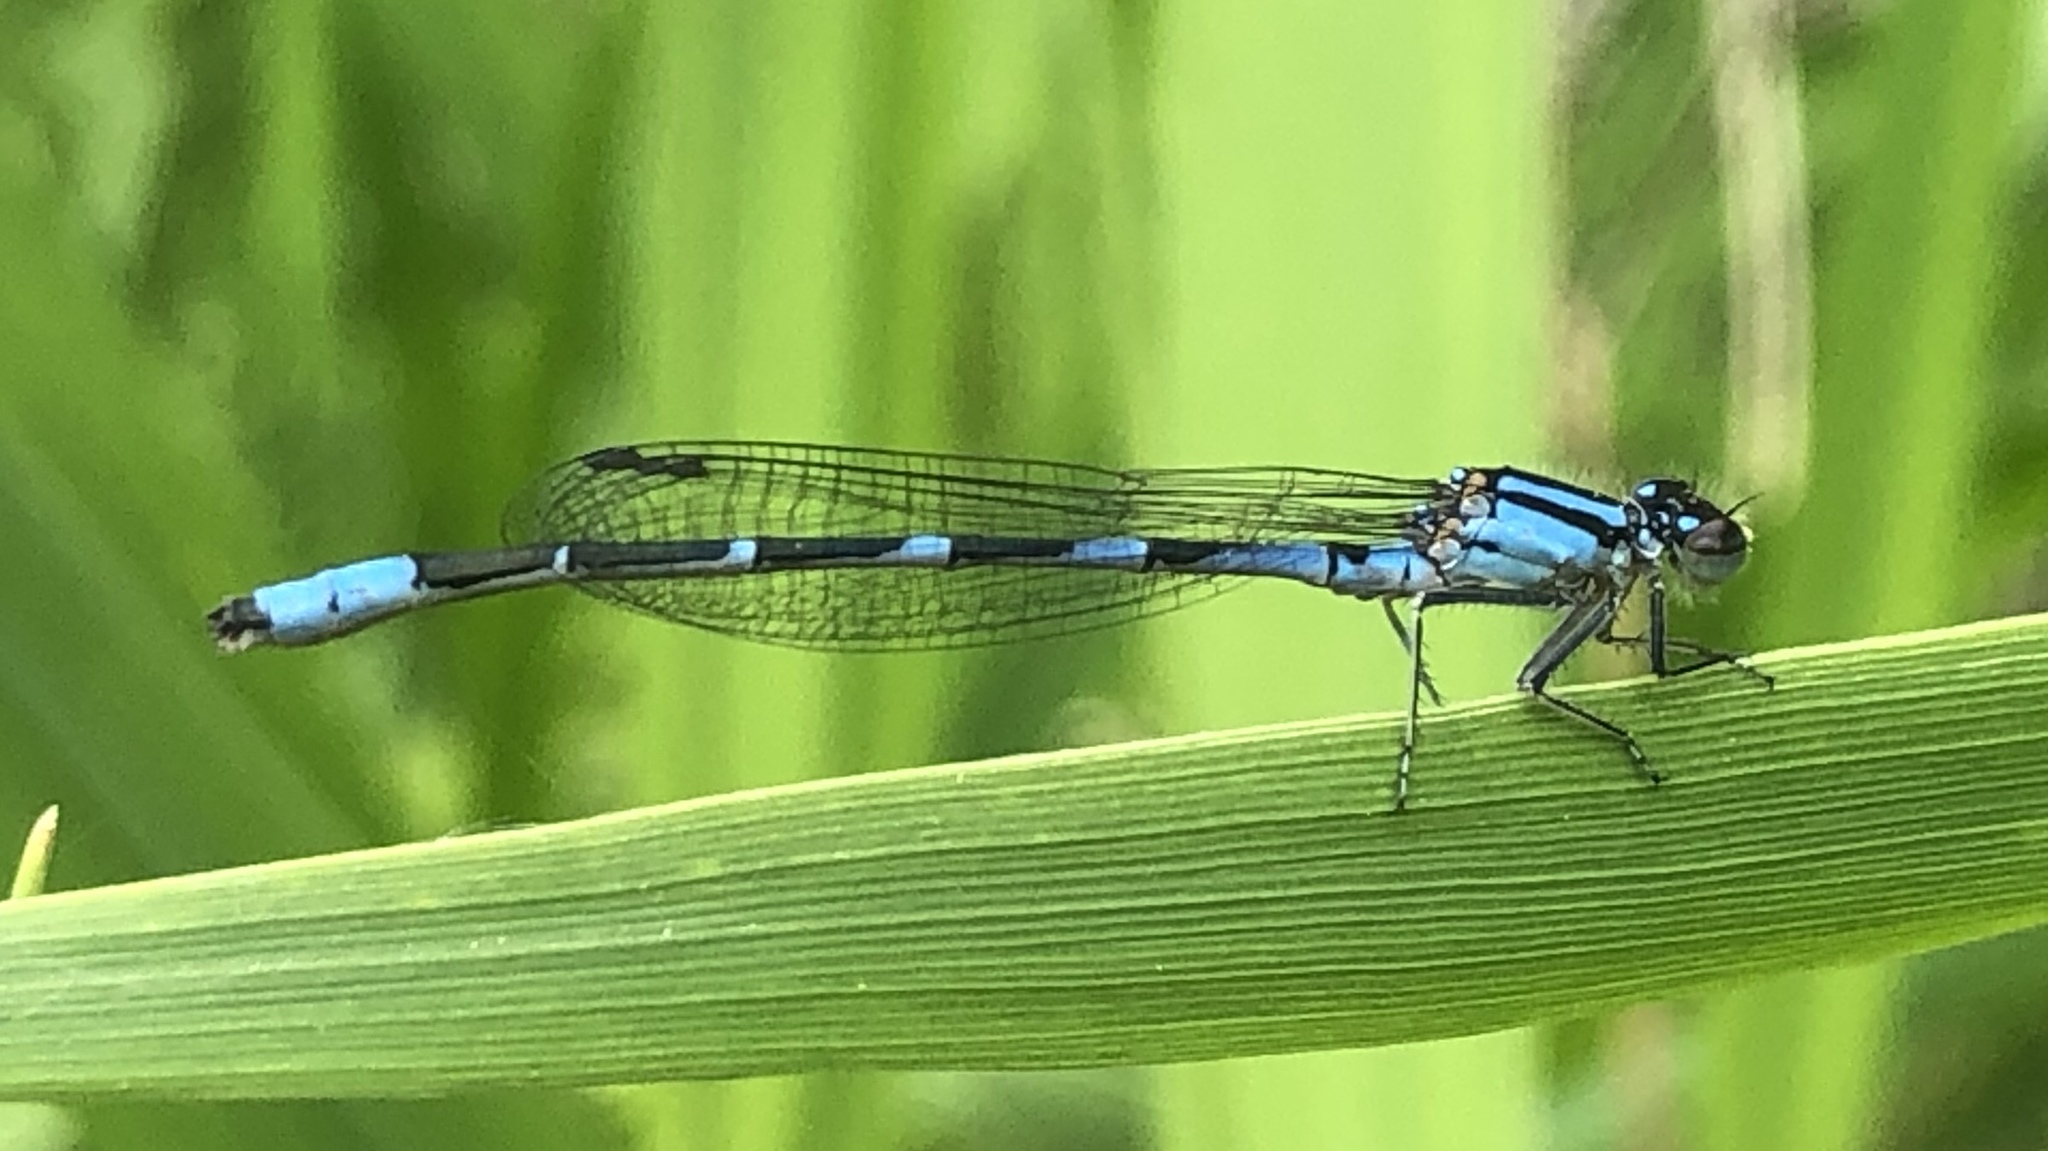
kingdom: Animalia
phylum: Arthropoda
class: Insecta
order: Odonata
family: Coenagrionidae
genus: Enallagma
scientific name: Enallagma ebrium
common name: Marsh bluet
